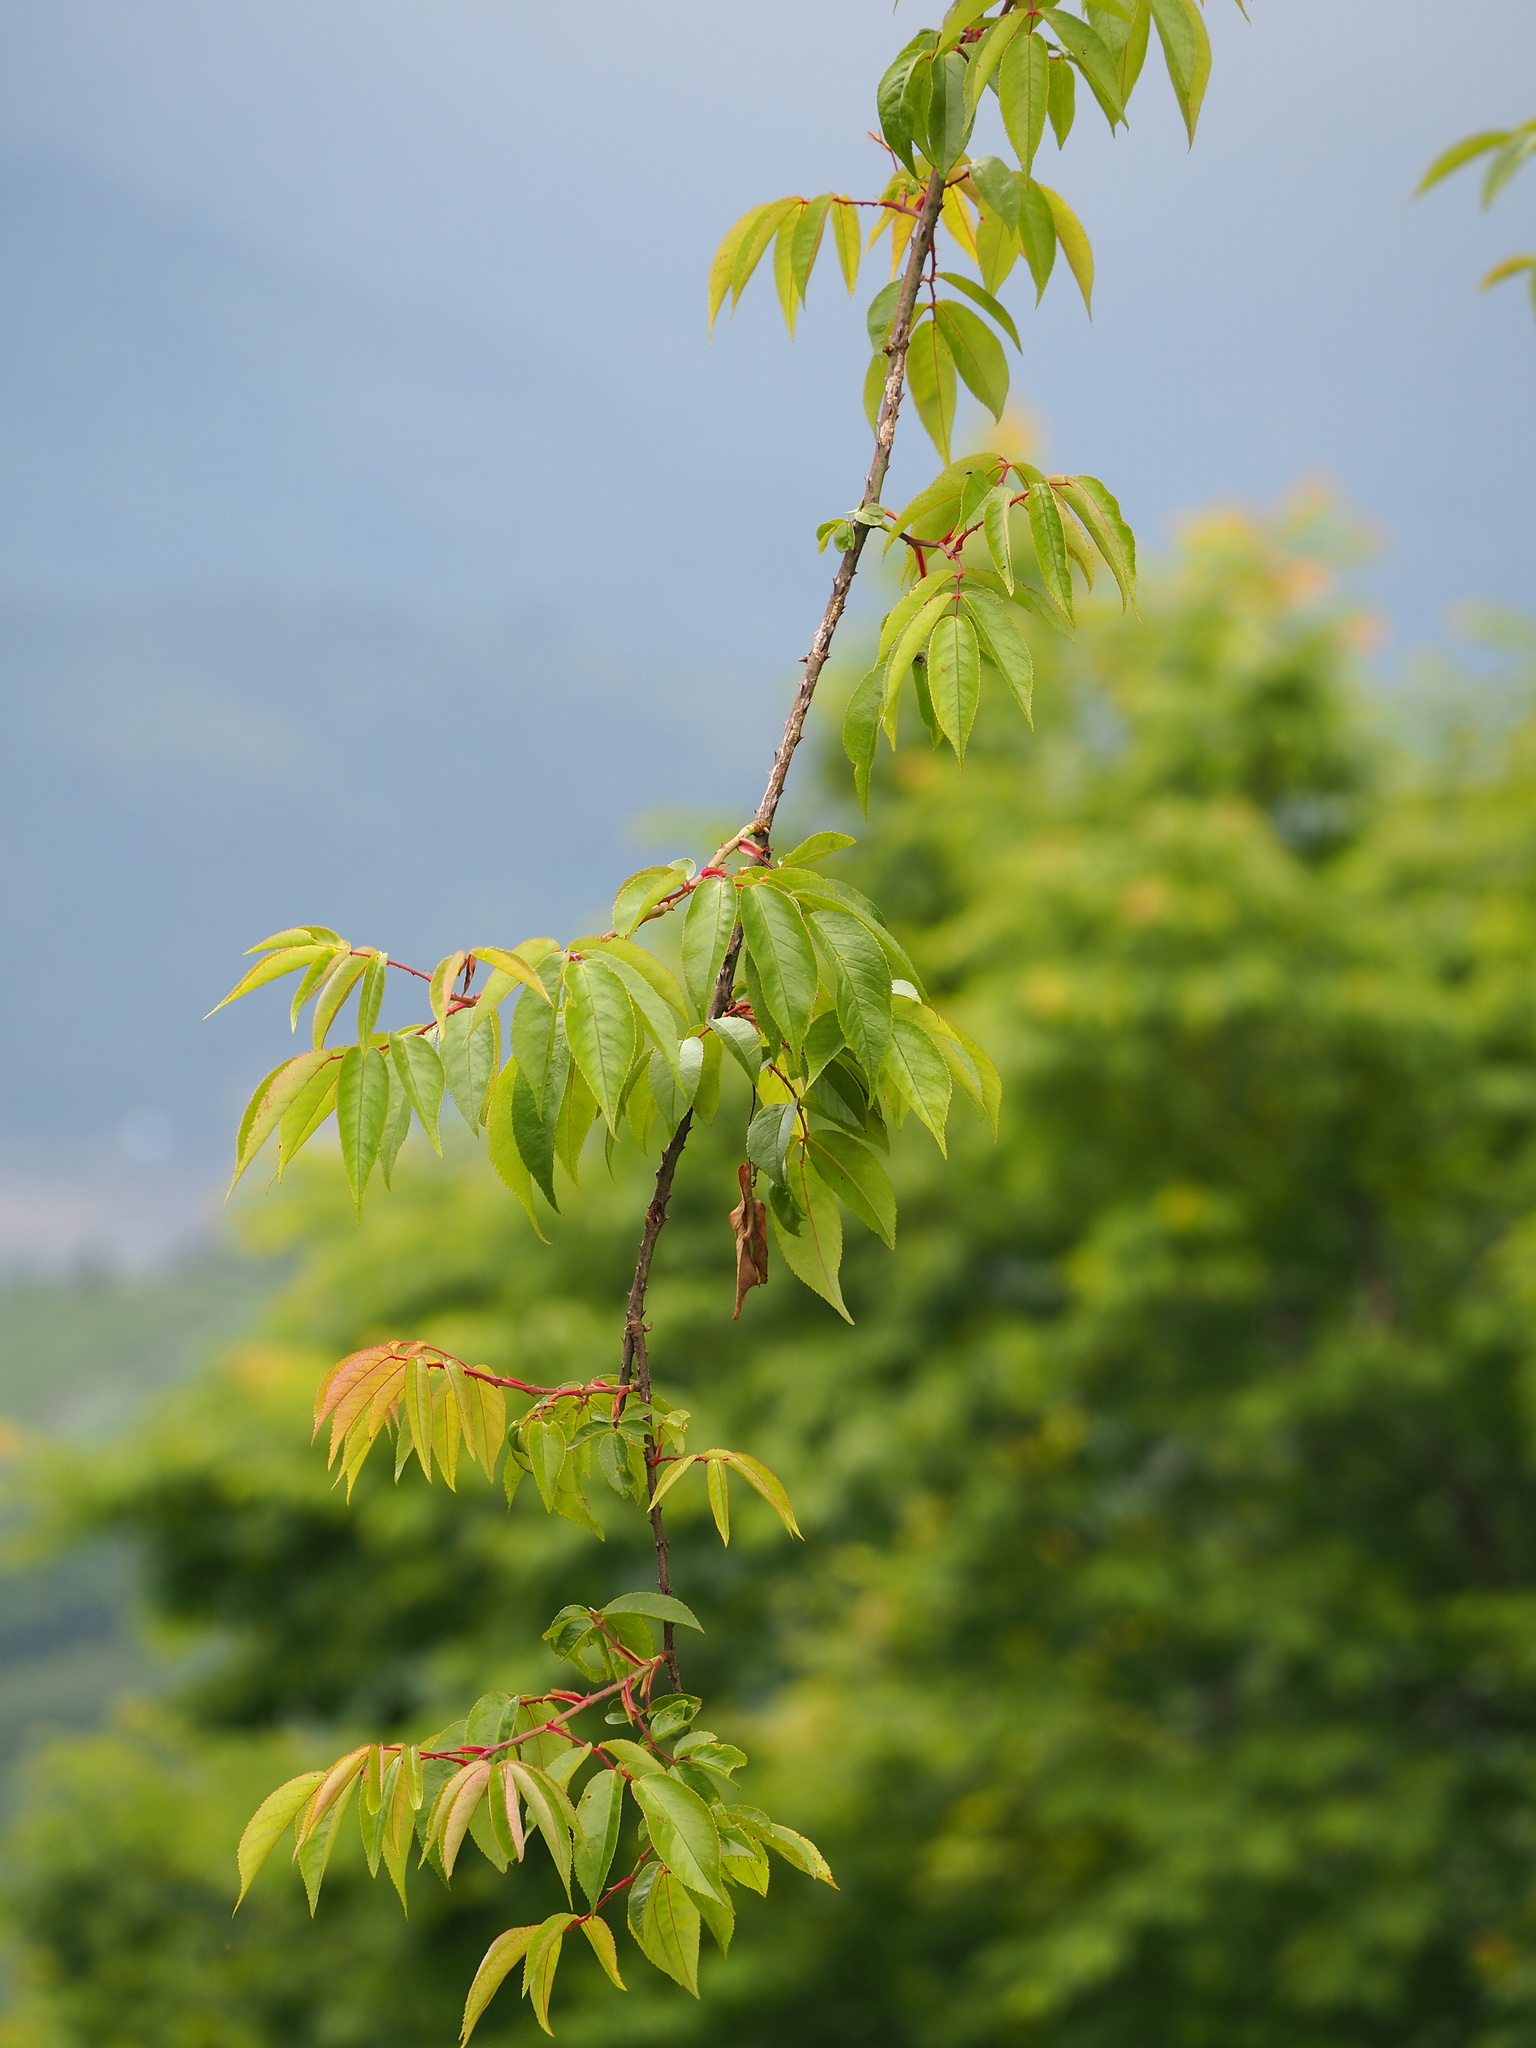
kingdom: Plantae
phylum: Tracheophyta
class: Magnoliopsida
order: Rosales
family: Rosaceae
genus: Rosa
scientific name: Rosa sambucina
